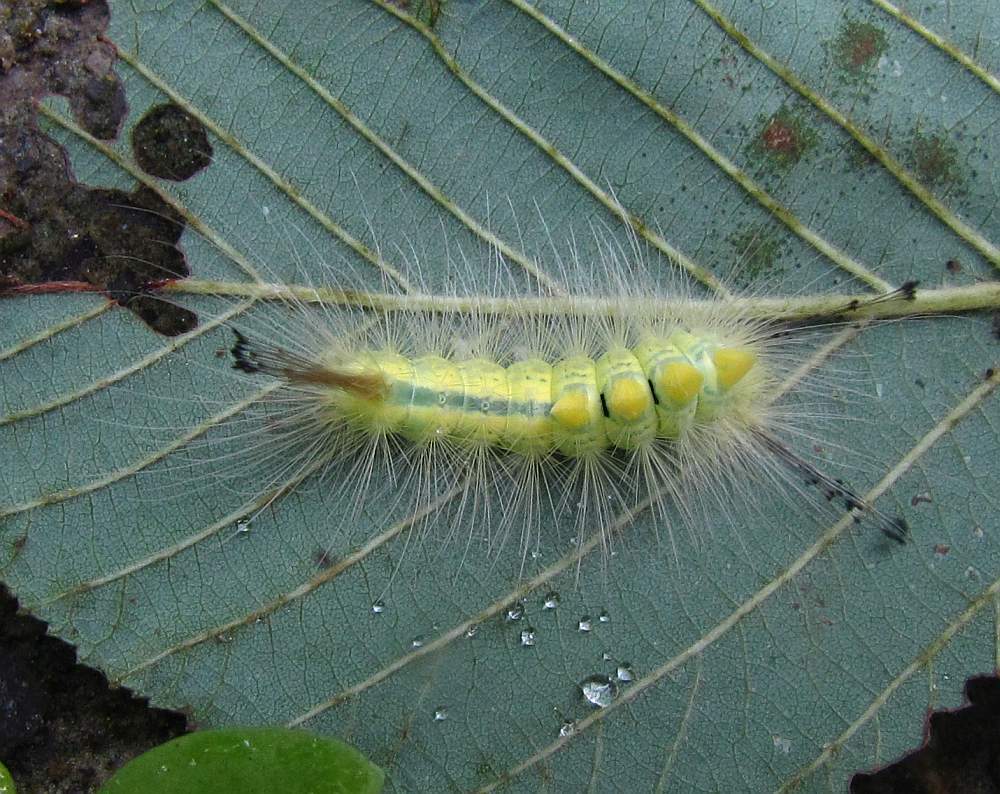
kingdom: Animalia
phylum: Arthropoda
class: Insecta
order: Lepidoptera
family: Erebidae
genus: Orgyia
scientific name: Orgyia definita
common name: Definite tussock moth
